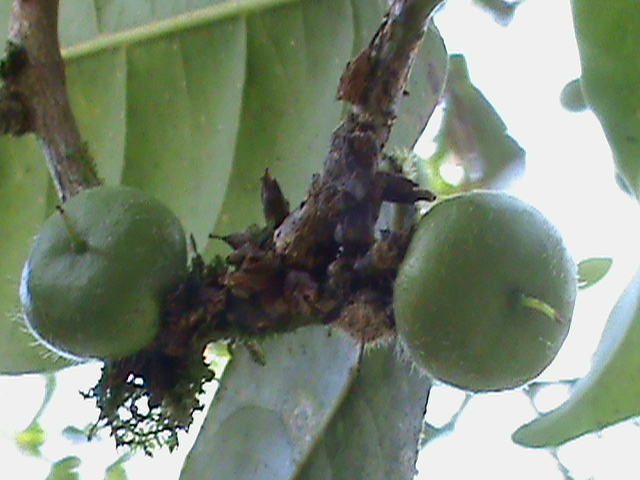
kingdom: Plantae
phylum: Tracheophyta
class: Magnoliopsida
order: Ericales
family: Sapotaceae
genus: Pouteria
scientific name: Pouteria caimito
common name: Caimito
